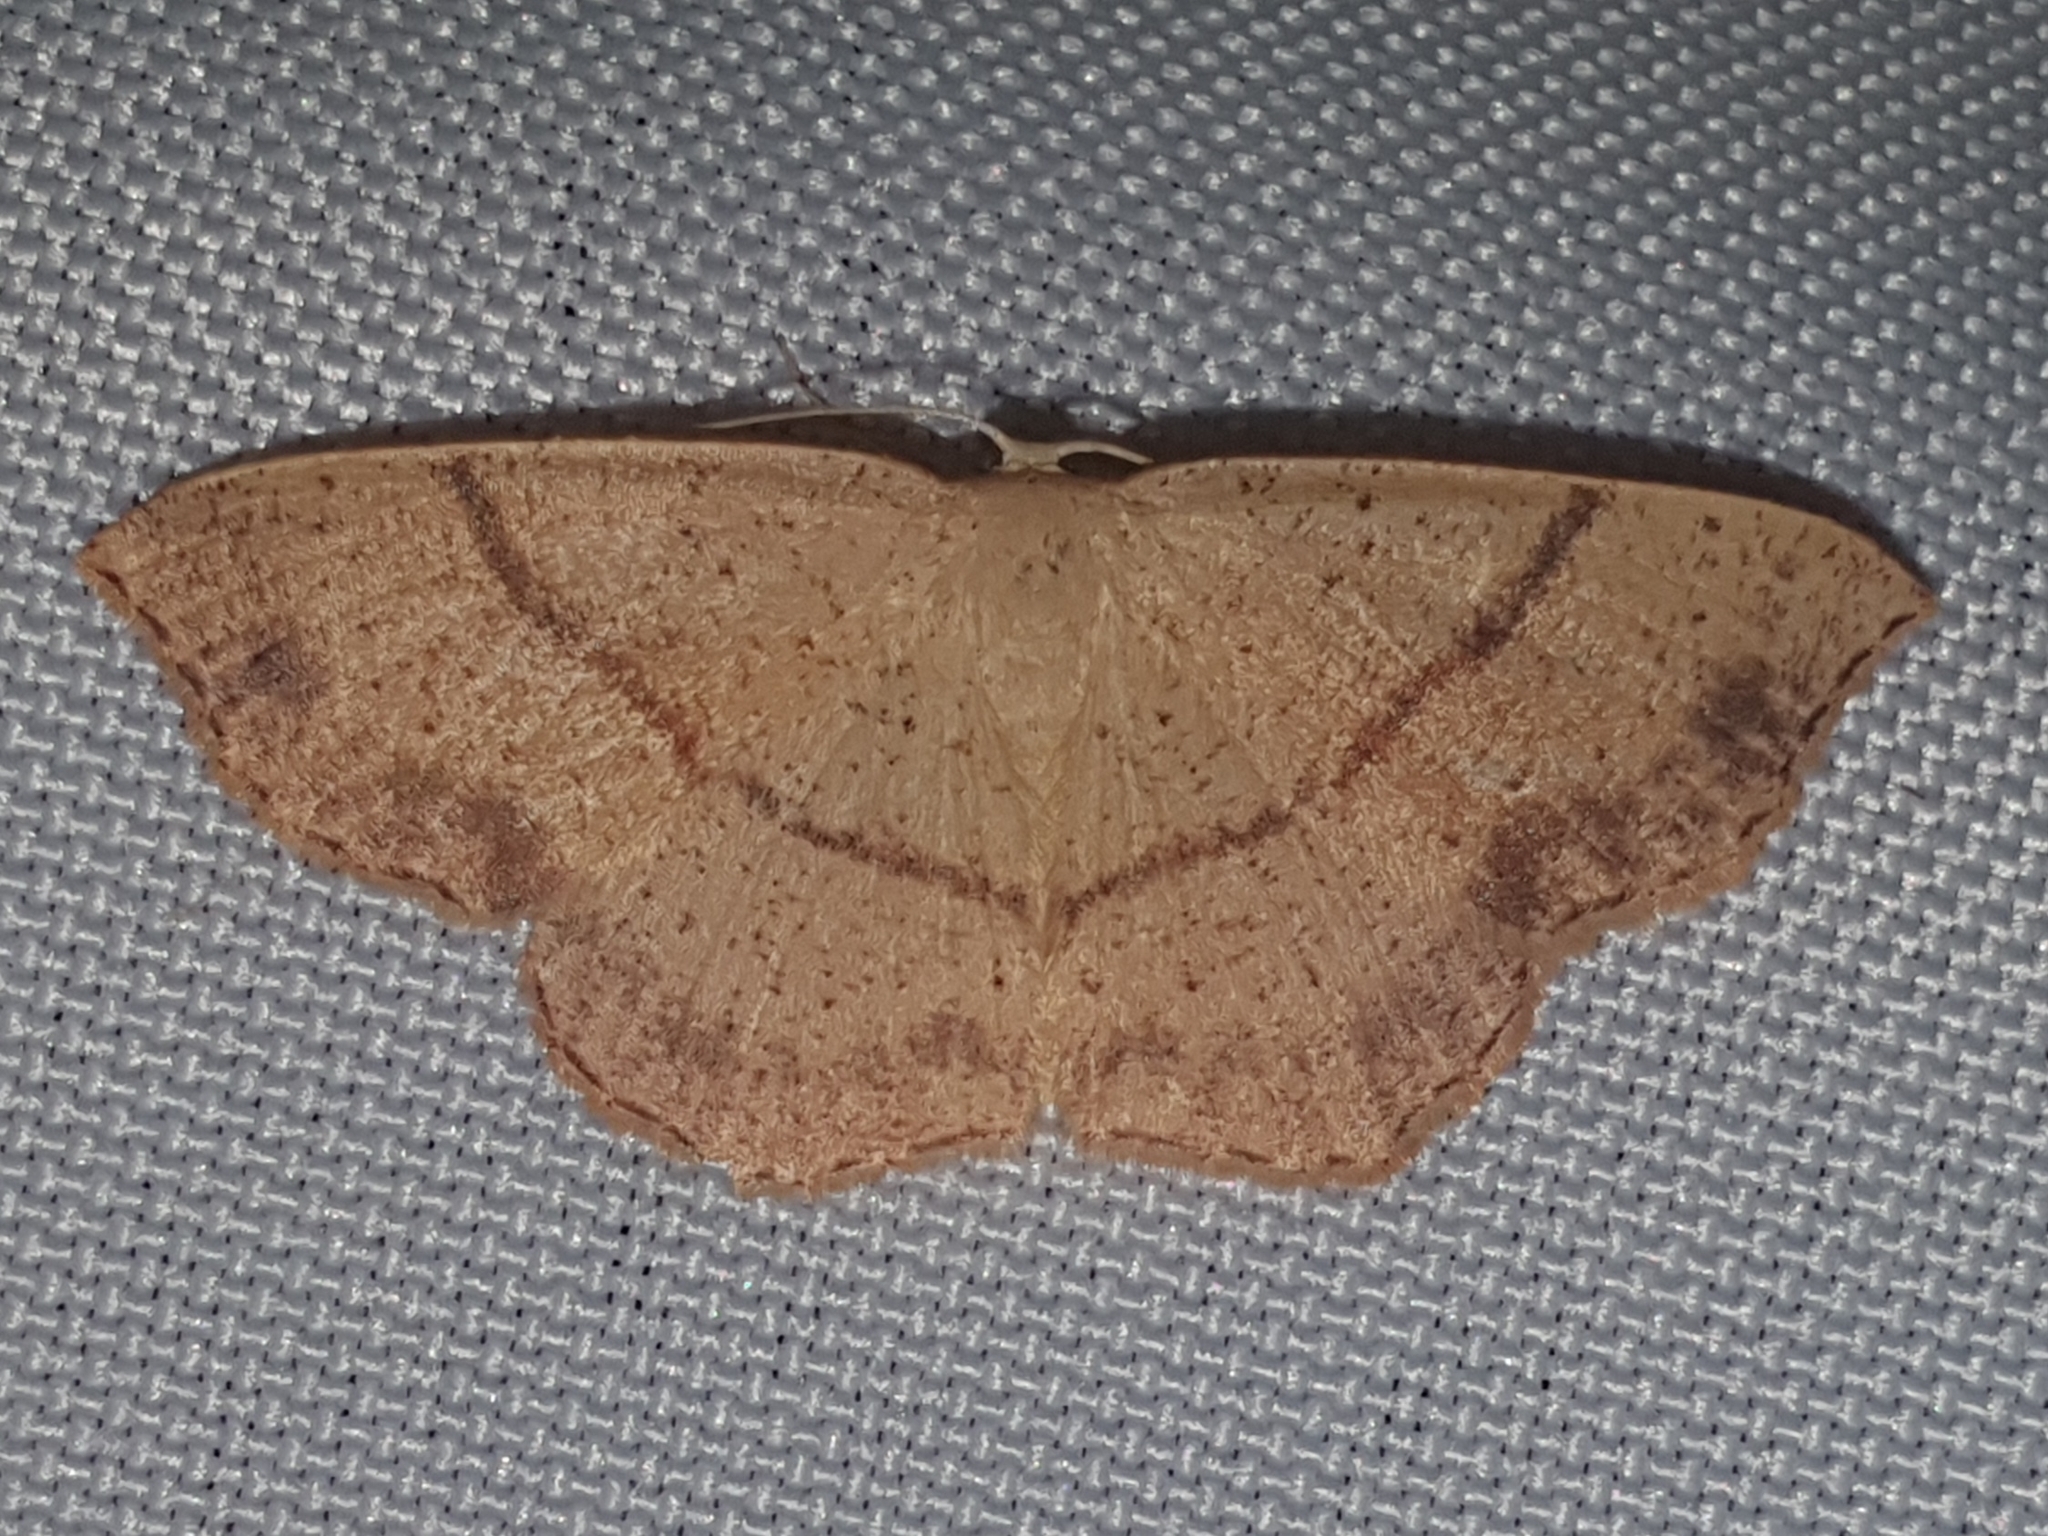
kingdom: Animalia
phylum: Arthropoda
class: Insecta
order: Lepidoptera
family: Geometridae
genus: Cyclophora
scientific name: Cyclophora punctaria
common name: Maiden's blush
